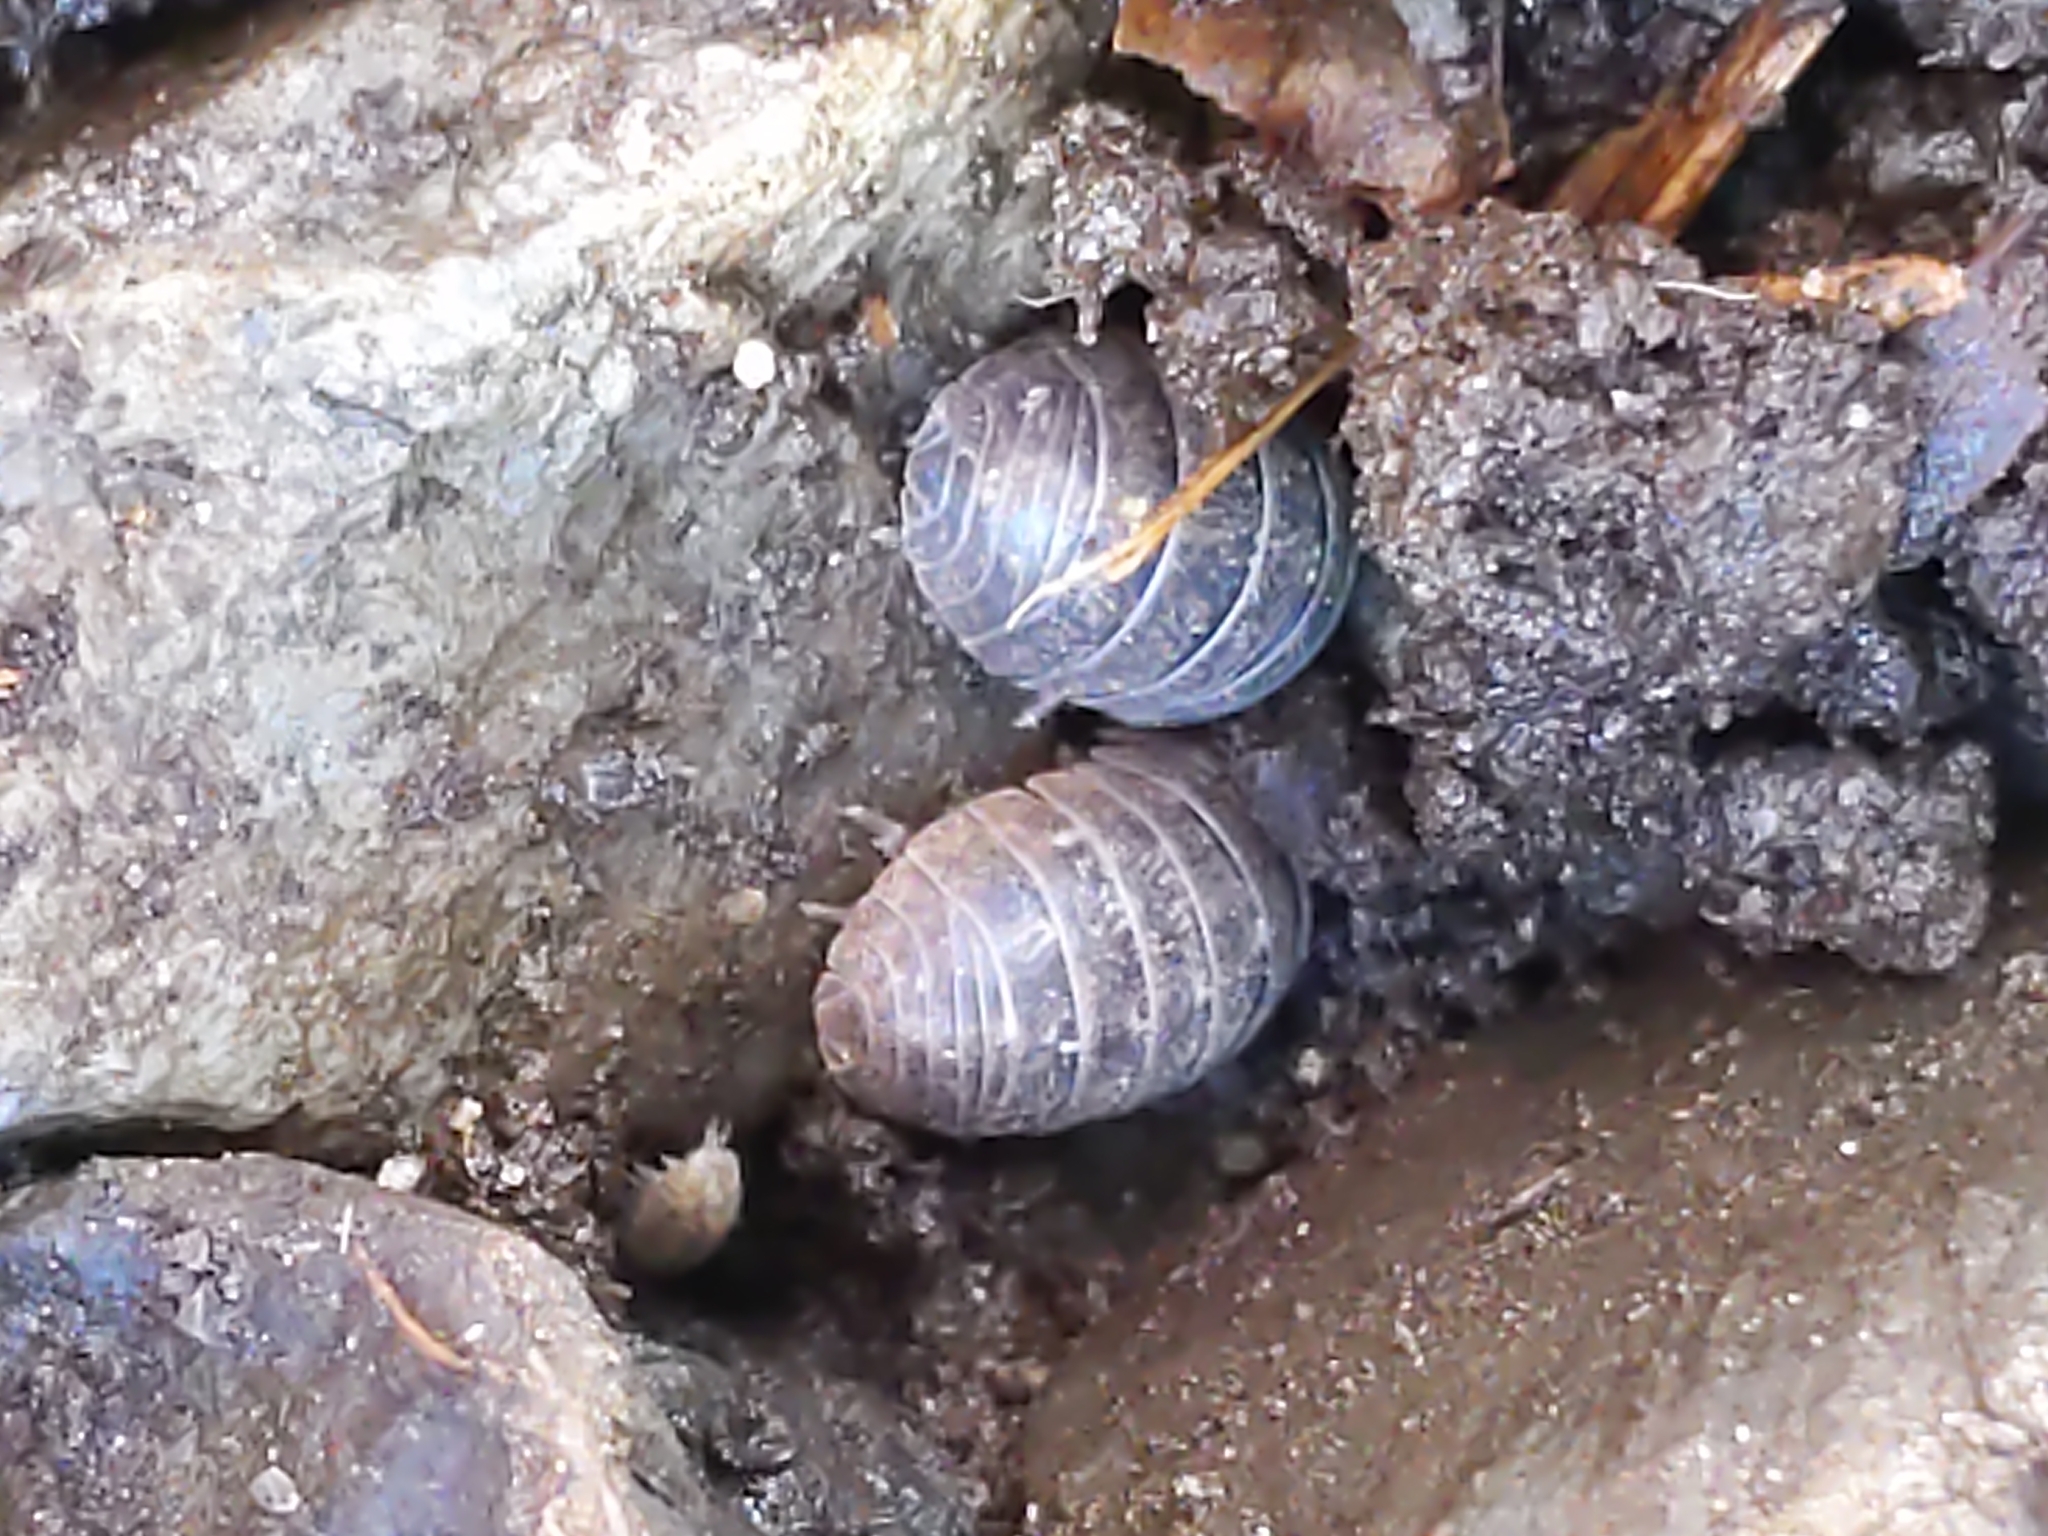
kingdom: Animalia
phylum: Arthropoda
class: Malacostraca
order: Isopoda
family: Armadillidiidae
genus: Armadillidium
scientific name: Armadillidium vulgare
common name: Common pill woodlouse
